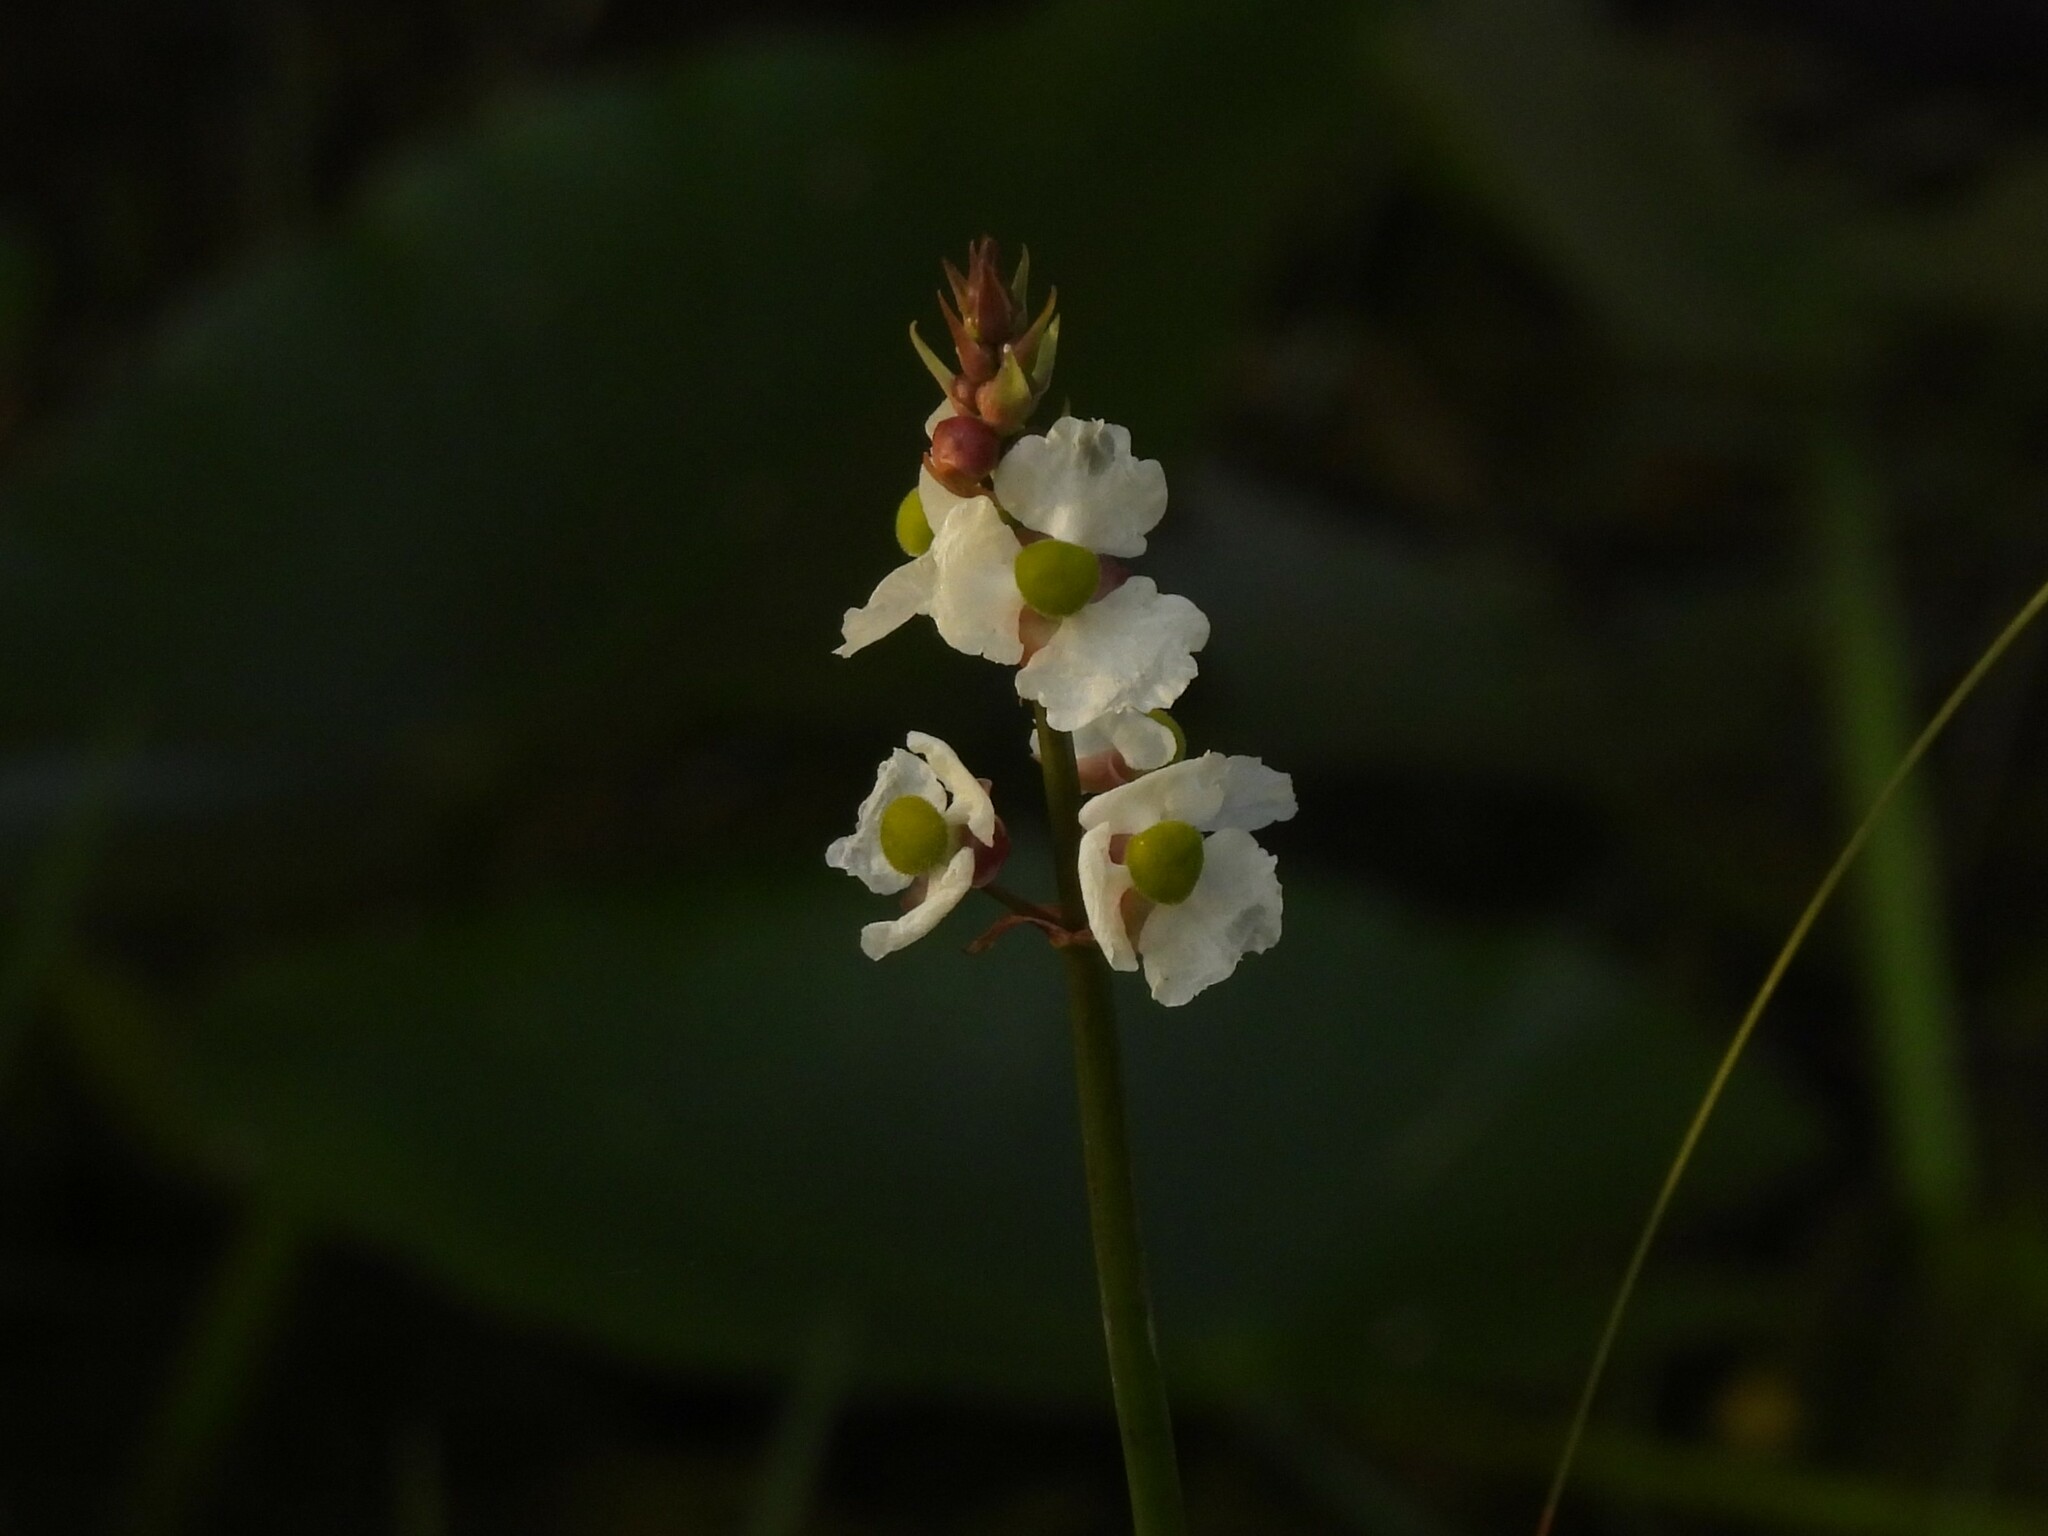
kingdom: Plantae
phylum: Tracheophyta
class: Liliopsida
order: Alismatales
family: Alismataceae
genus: Sagittaria
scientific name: Sagittaria lancifolia
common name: Lance-leaf arrowhead
